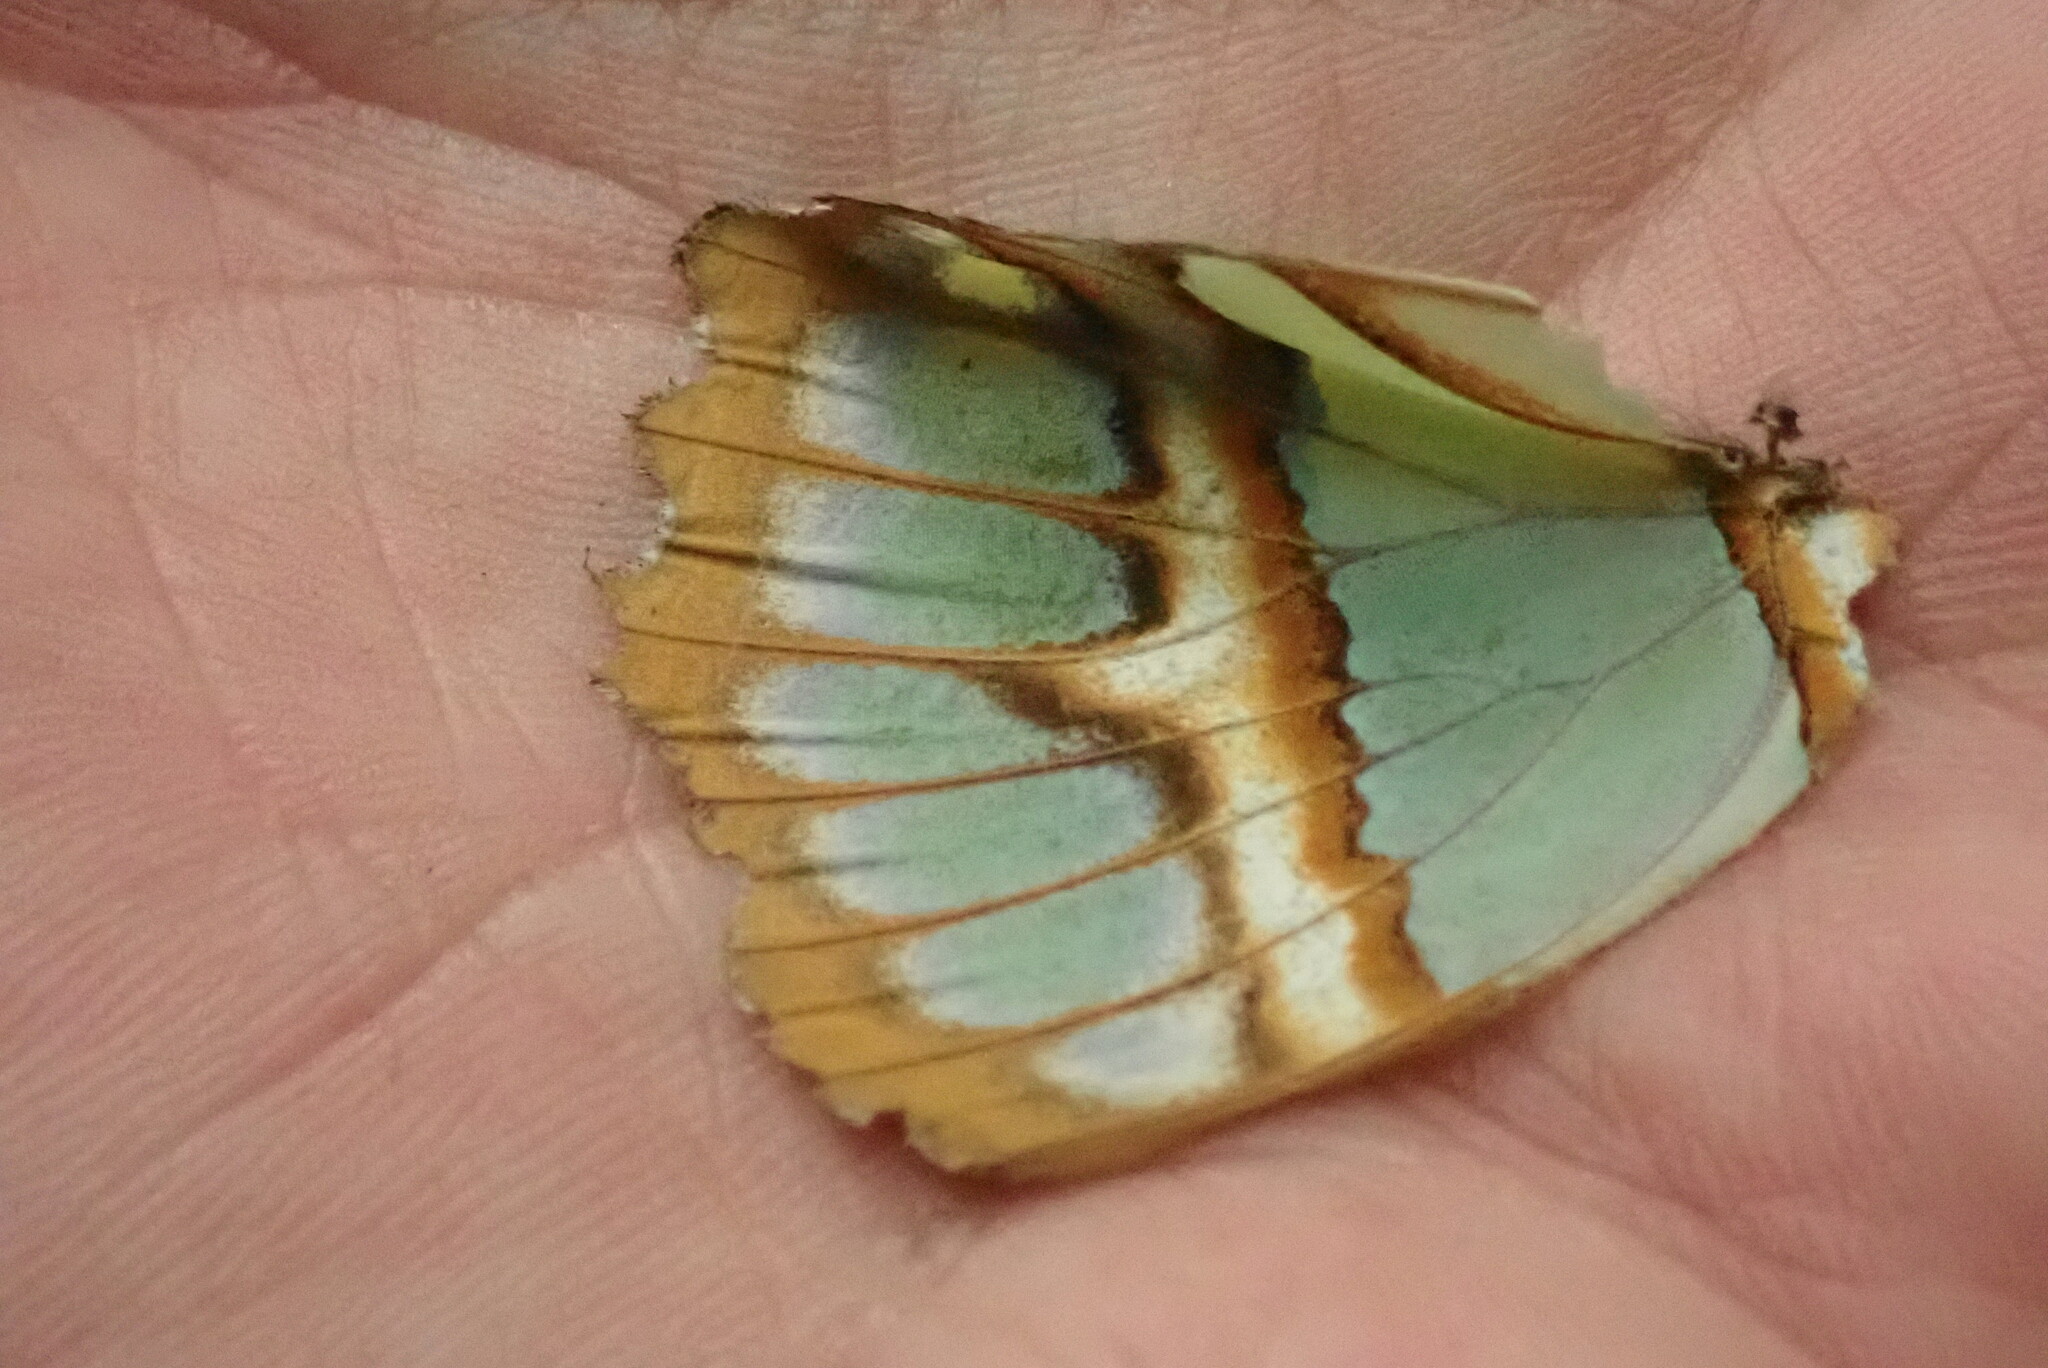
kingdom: Animalia
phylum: Arthropoda
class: Insecta
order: Lepidoptera
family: Nymphalidae
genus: Siproeta
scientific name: Siproeta stelenes
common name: Malachite
